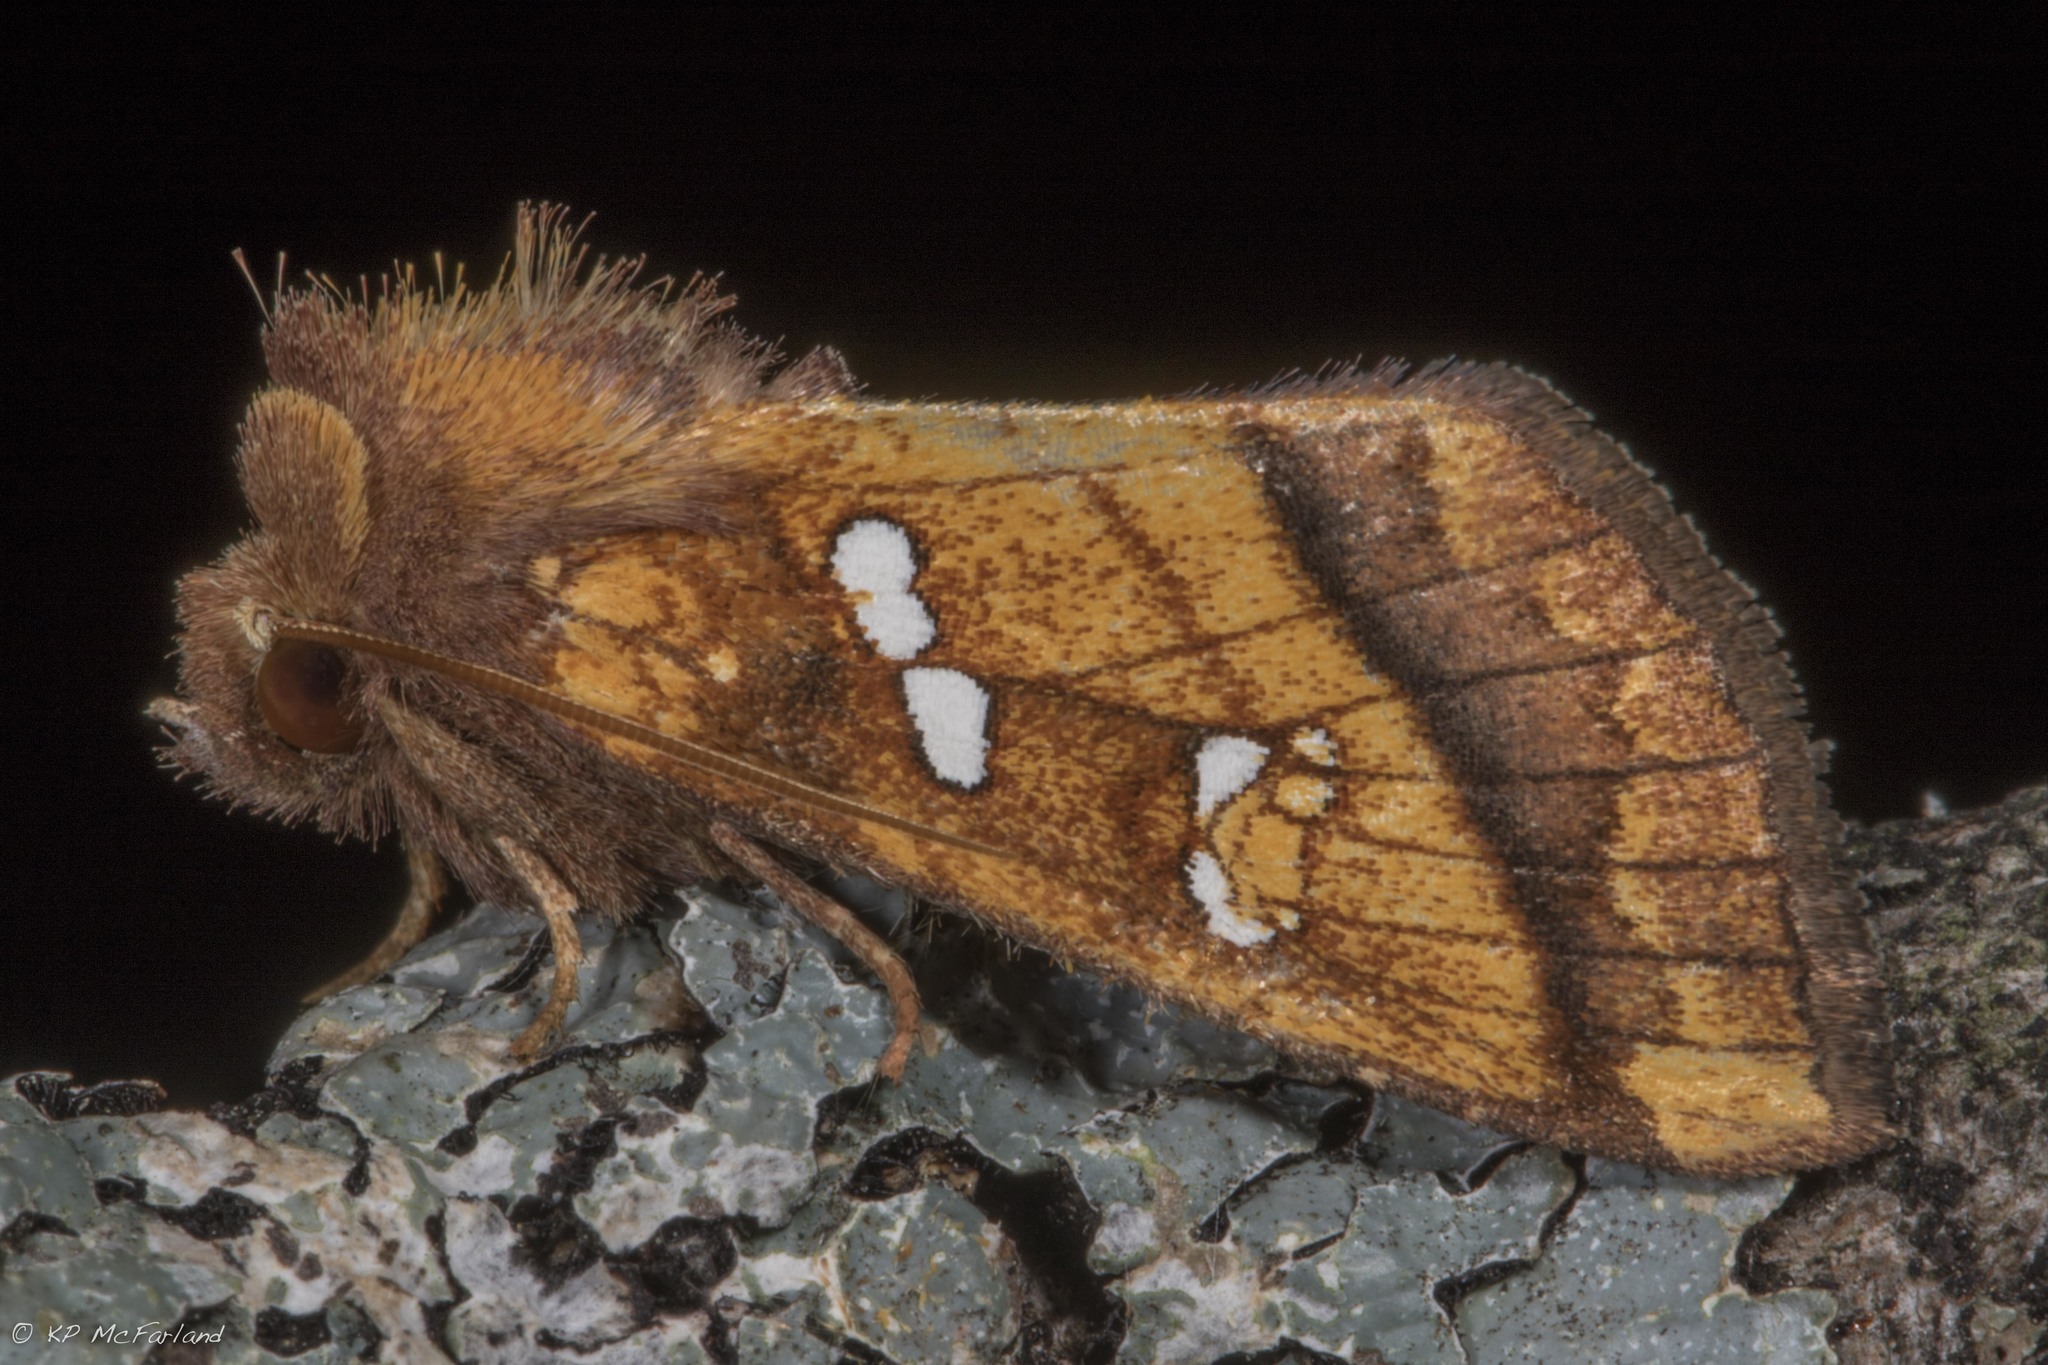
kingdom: Animalia
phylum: Arthropoda
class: Insecta
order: Lepidoptera
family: Noctuidae
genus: Papaipema
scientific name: Papaipema pterisii
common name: Bracken borer moth
